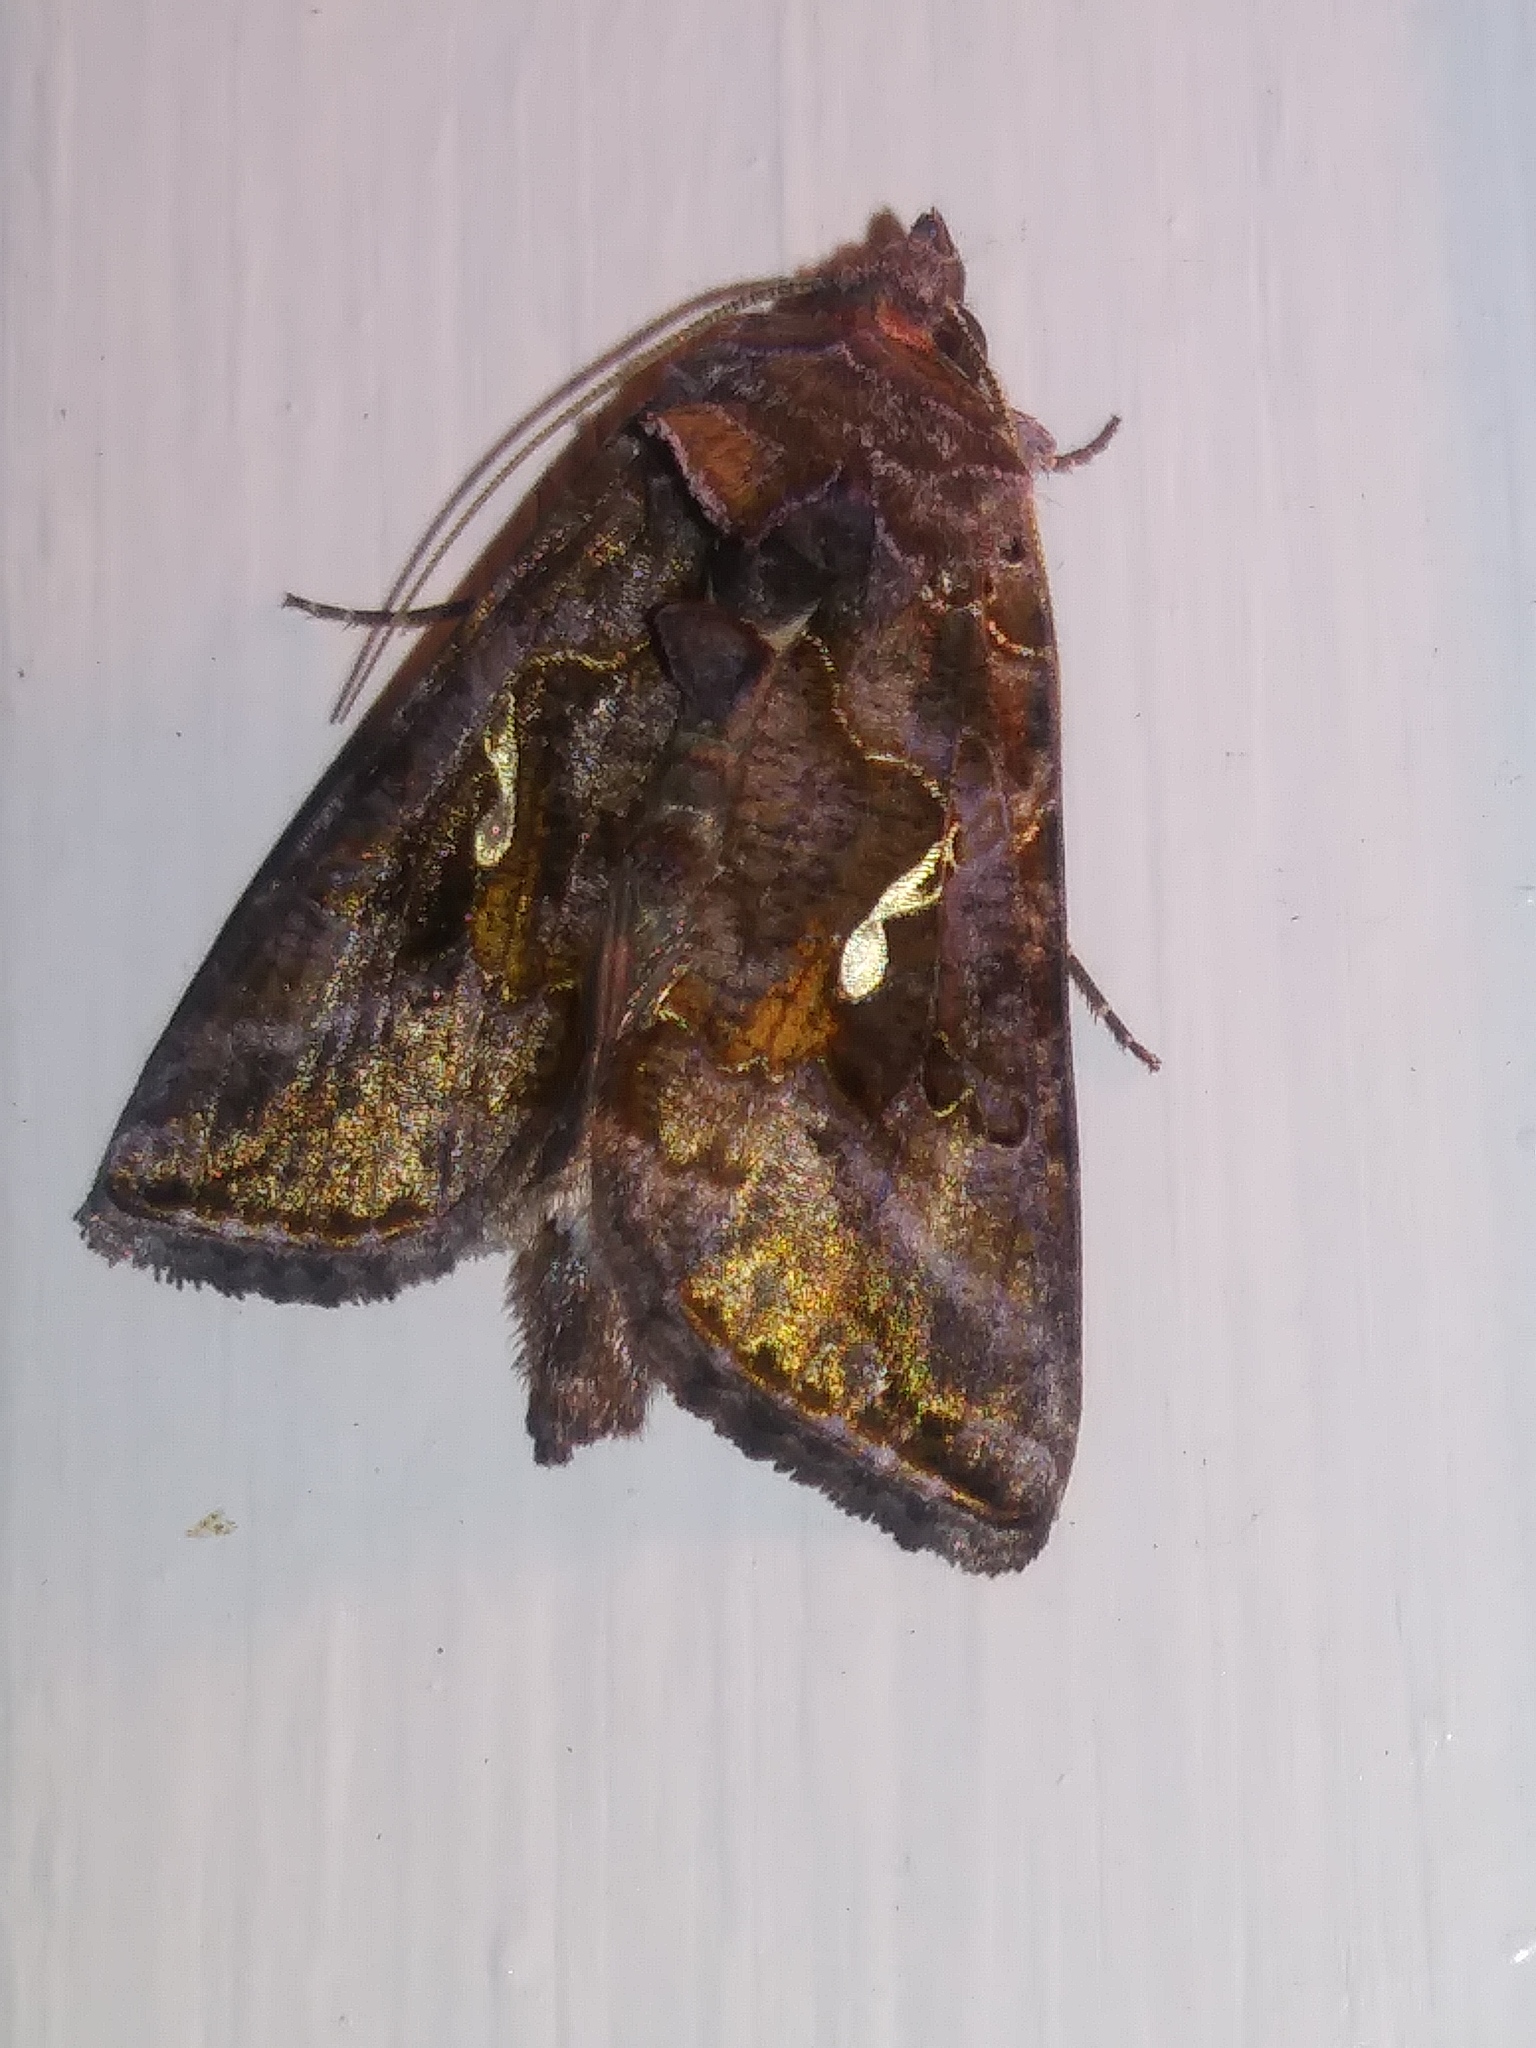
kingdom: Animalia
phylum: Arthropoda
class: Insecta
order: Lepidoptera
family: Noctuidae
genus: Autographa
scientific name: Autographa precationis
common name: Common looper moth
